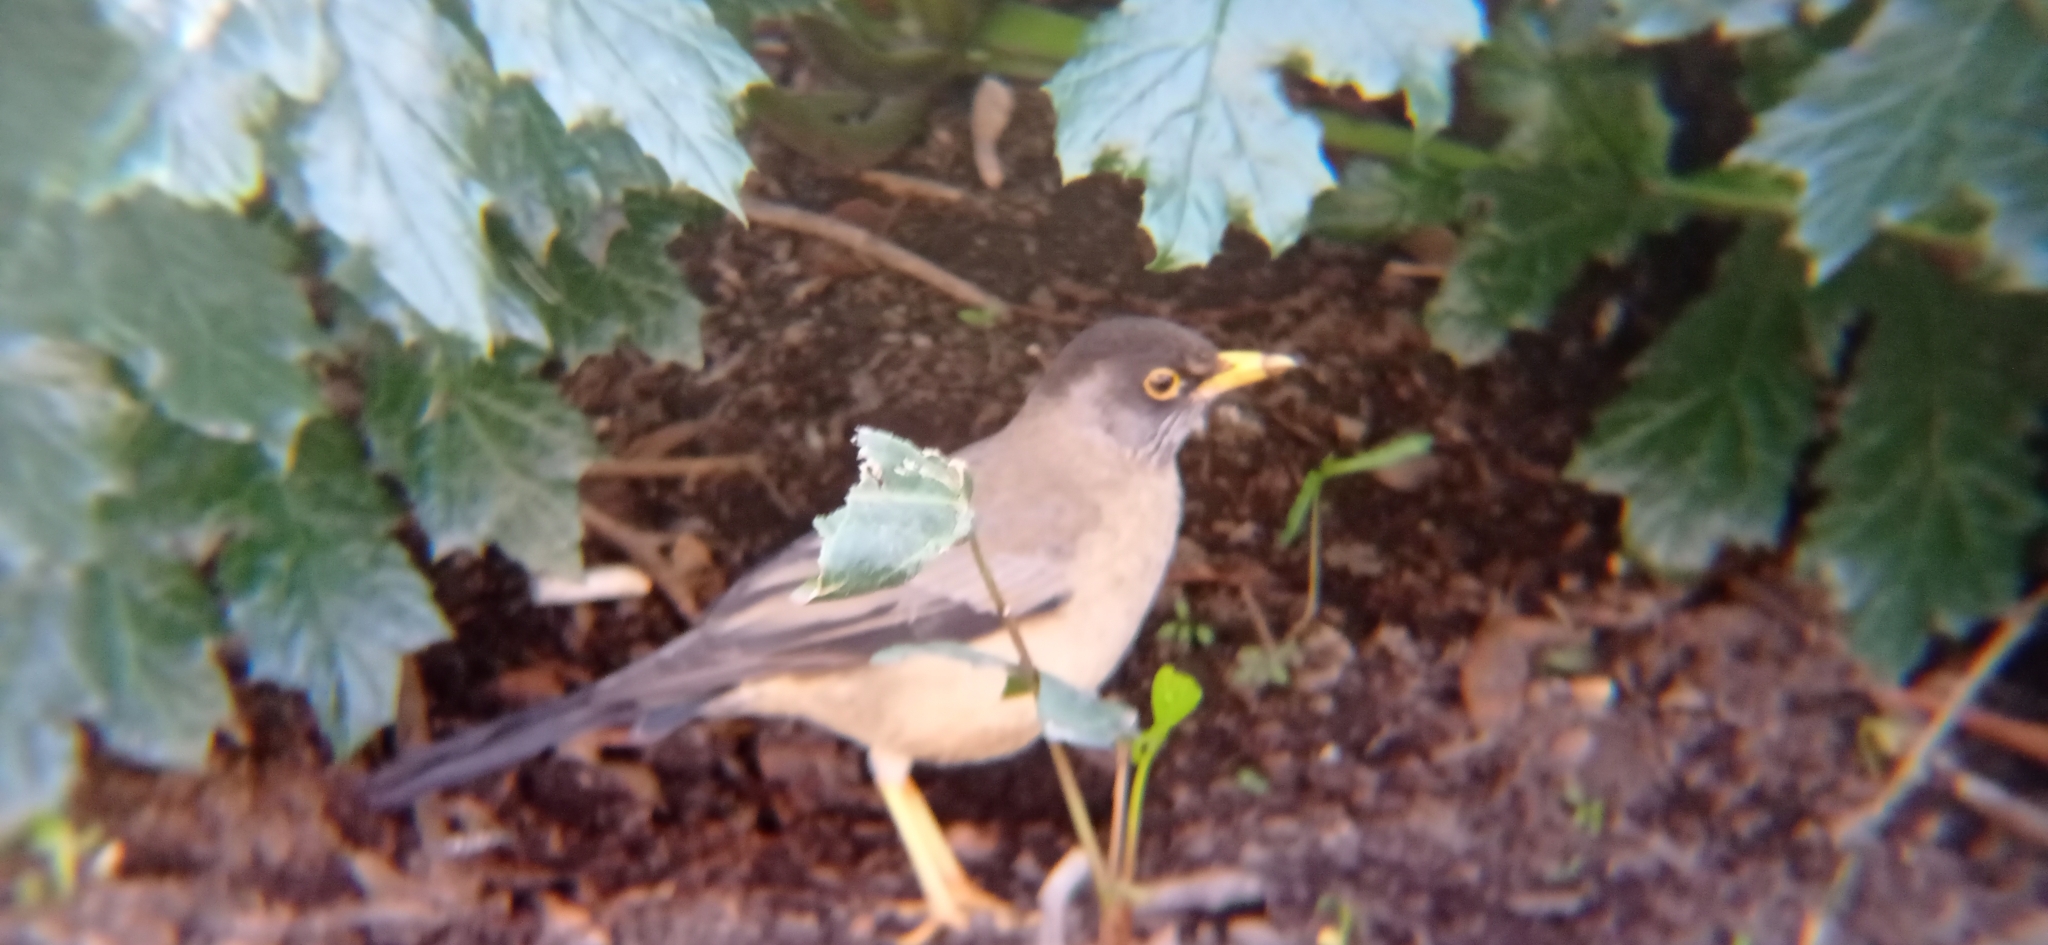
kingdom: Animalia
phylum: Chordata
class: Aves
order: Passeriformes
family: Turdidae
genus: Turdus
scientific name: Turdus falcklandii
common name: Austral thrush
